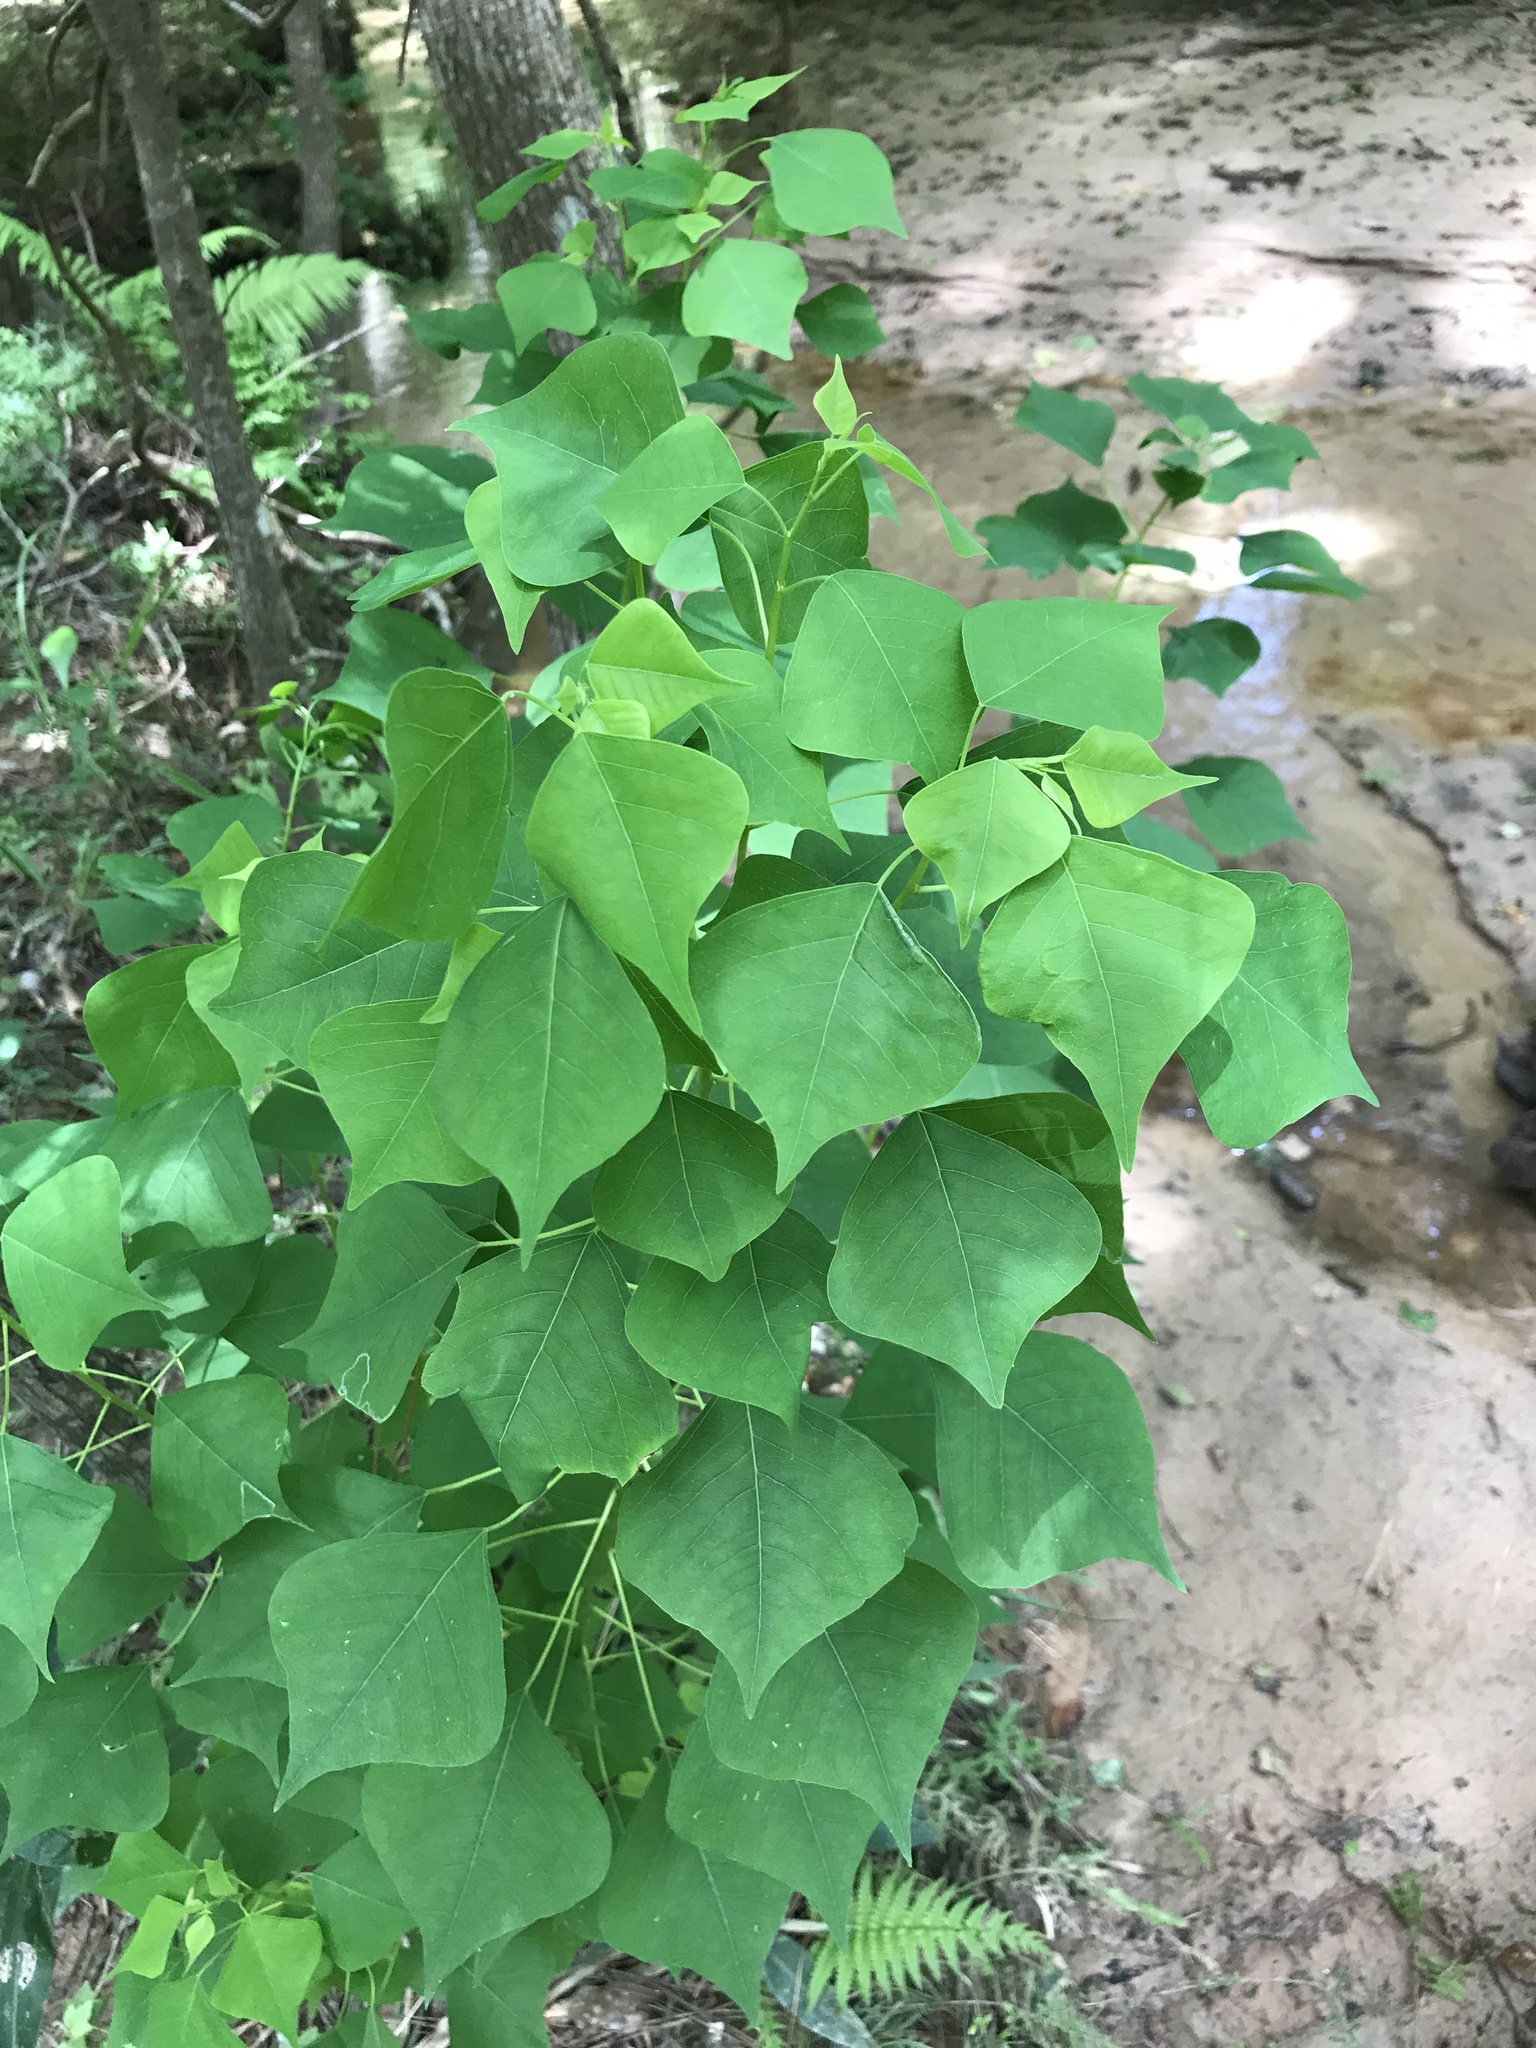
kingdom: Plantae
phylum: Tracheophyta
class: Magnoliopsida
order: Malpighiales
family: Euphorbiaceae
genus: Triadica
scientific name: Triadica sebifera
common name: Chinese tallow
